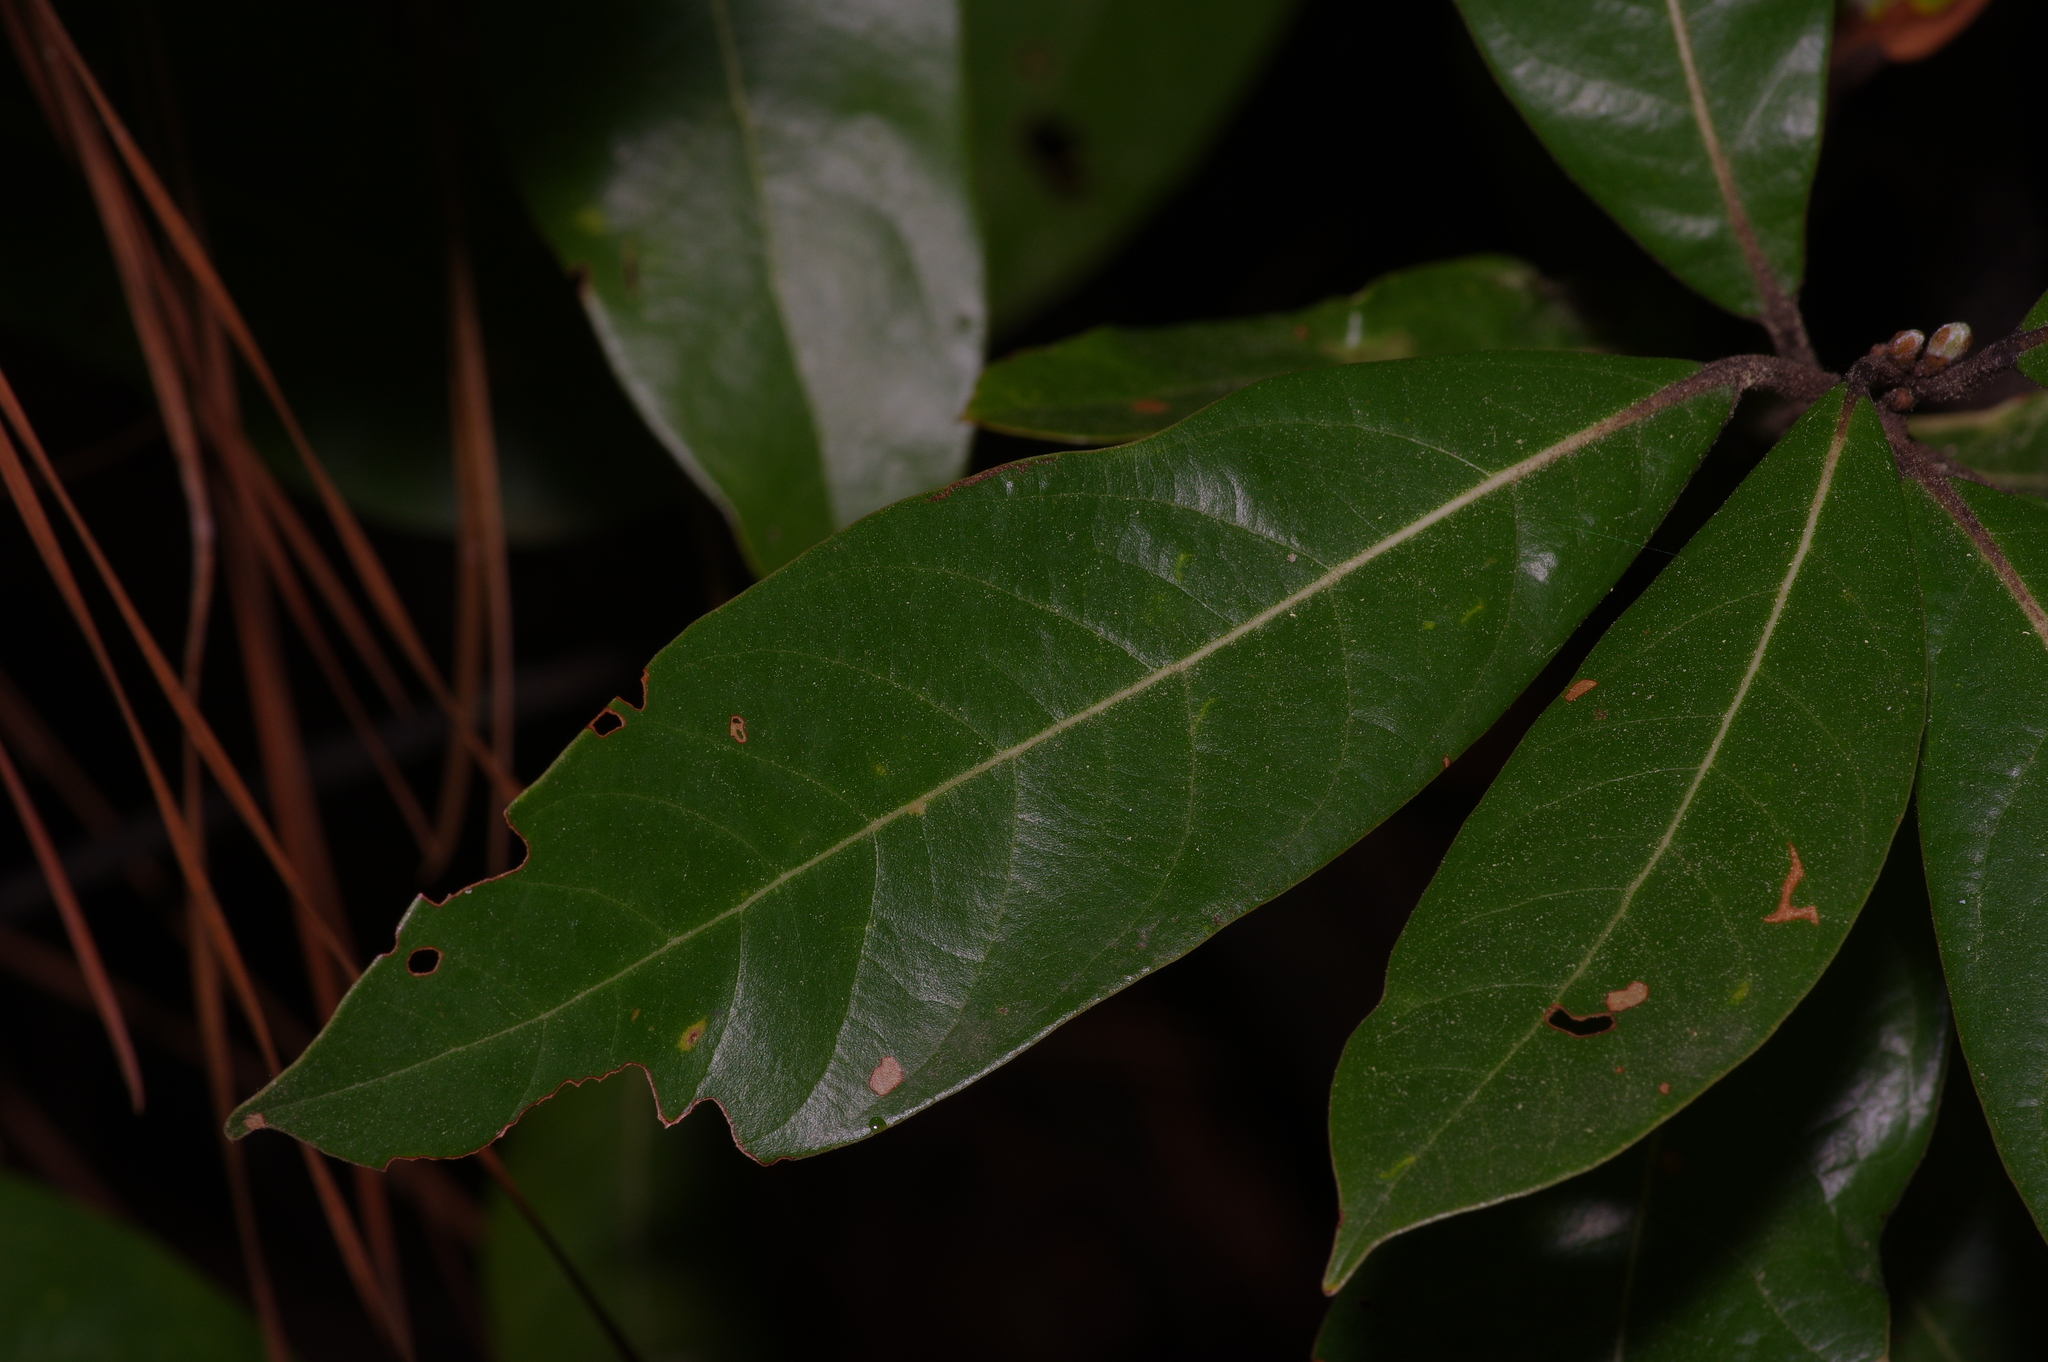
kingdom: Plantae
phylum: Tracheophyta
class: Magnoliopsida
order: Laurales
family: Lauraceae
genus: Persea
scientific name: Persea palustris
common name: Swampbay
